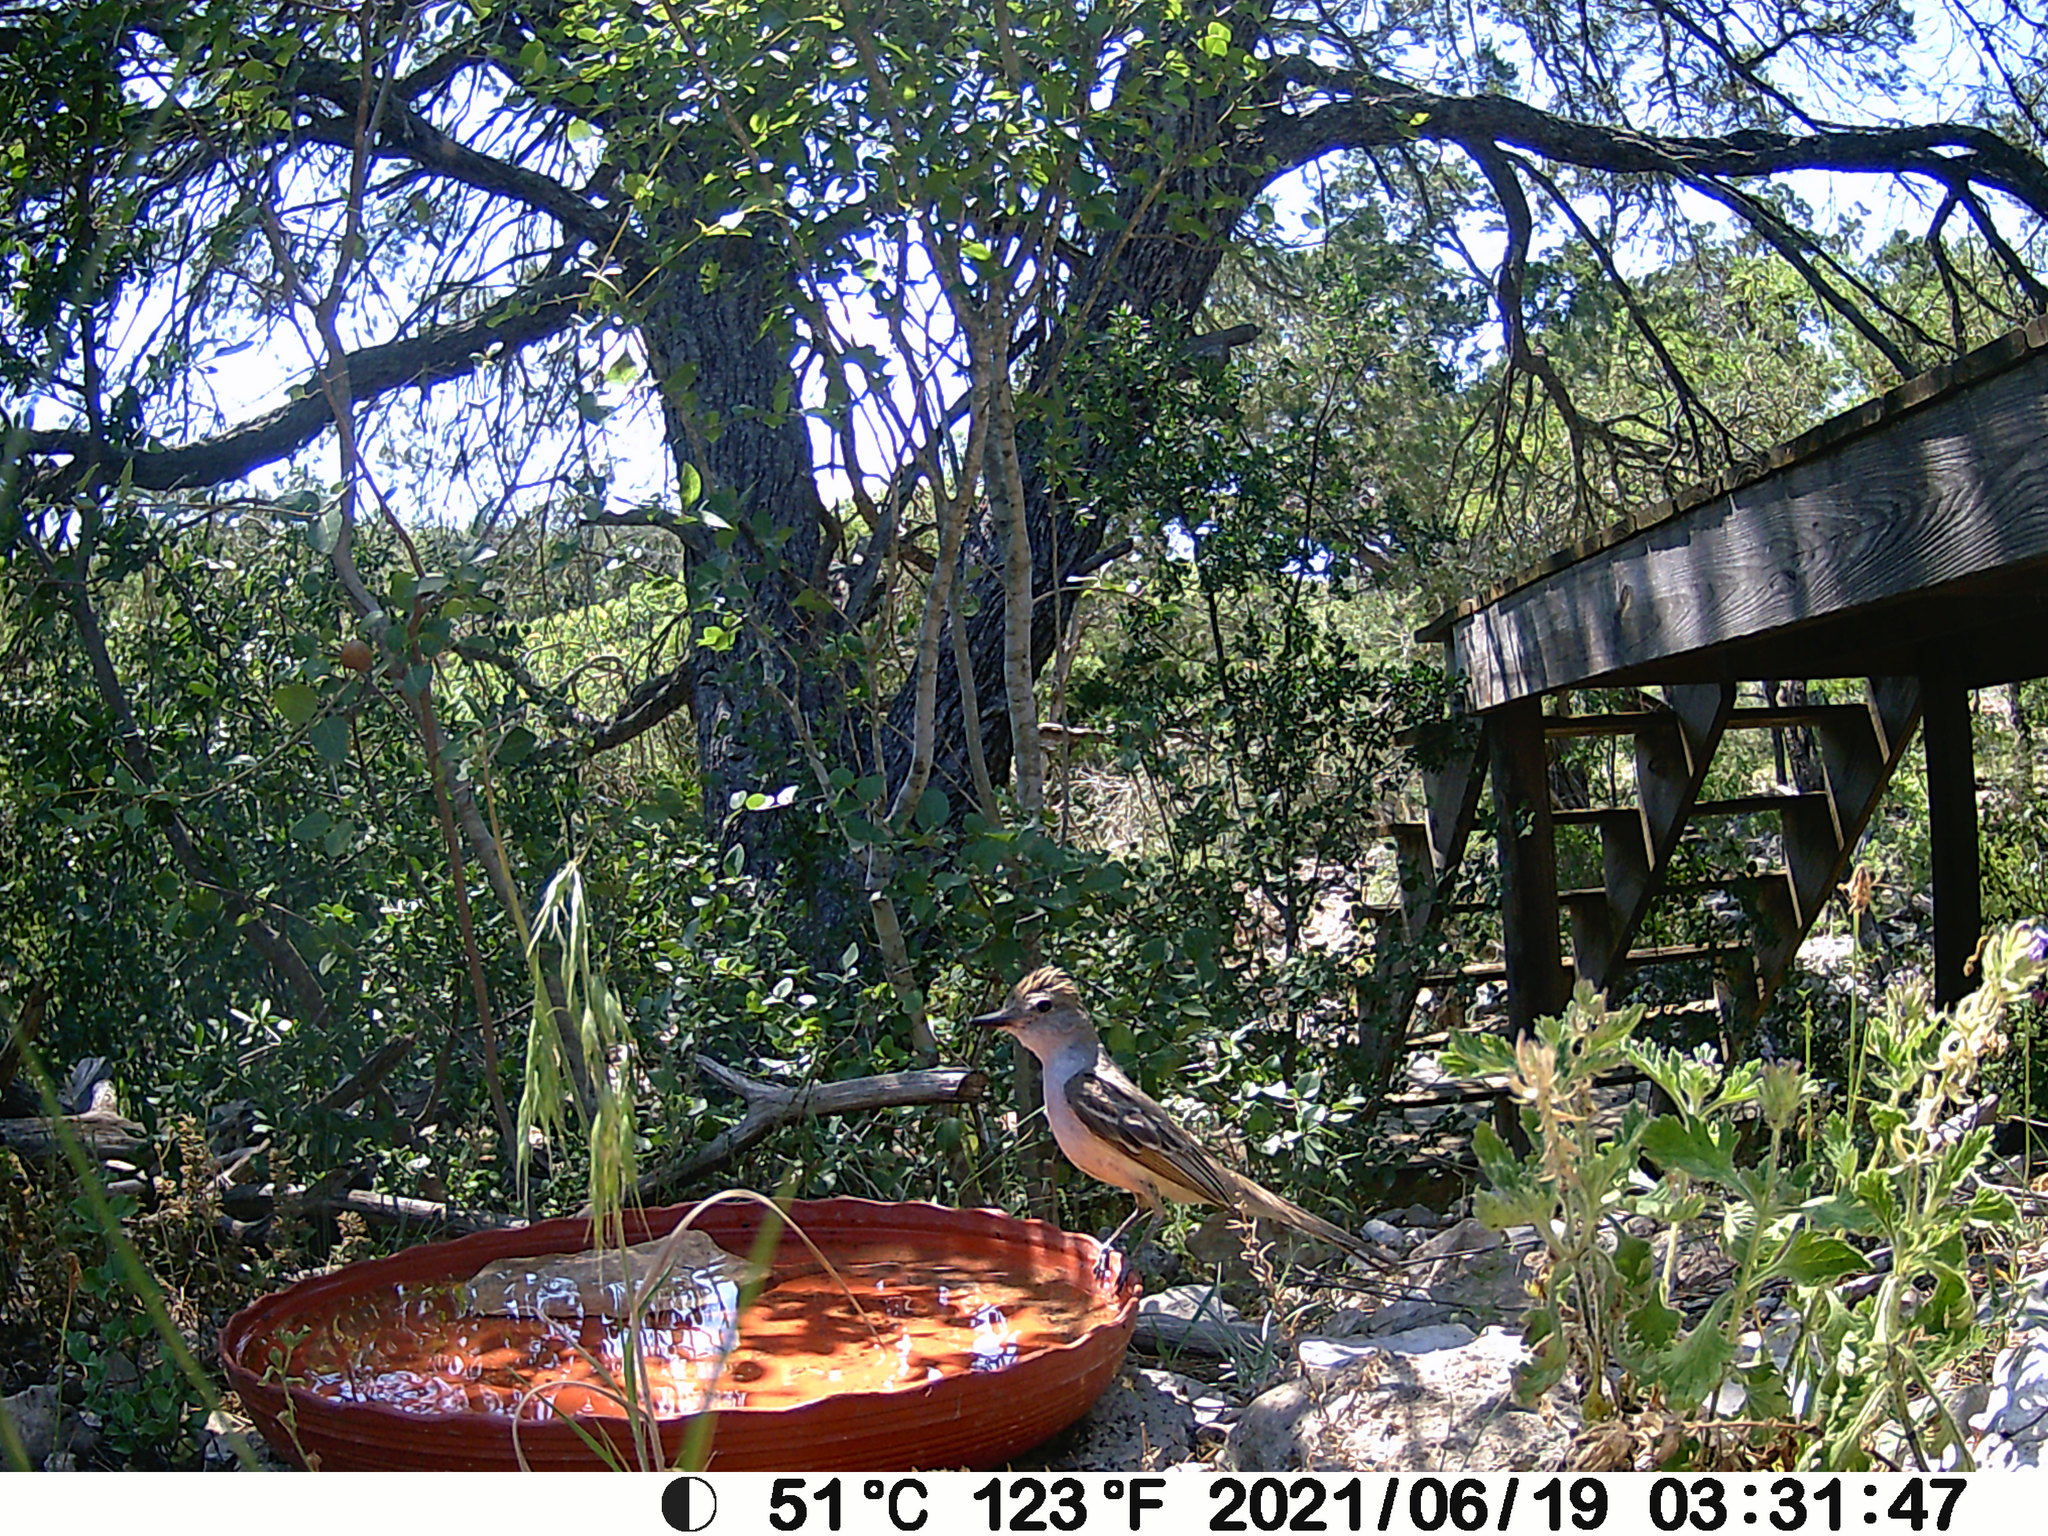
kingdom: Animalia
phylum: Chordata
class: Aves
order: Passeriformes
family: Tyrannidae
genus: Myiarchus
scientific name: Myiarchus cinerascens
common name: Ash-throated flycatcher
